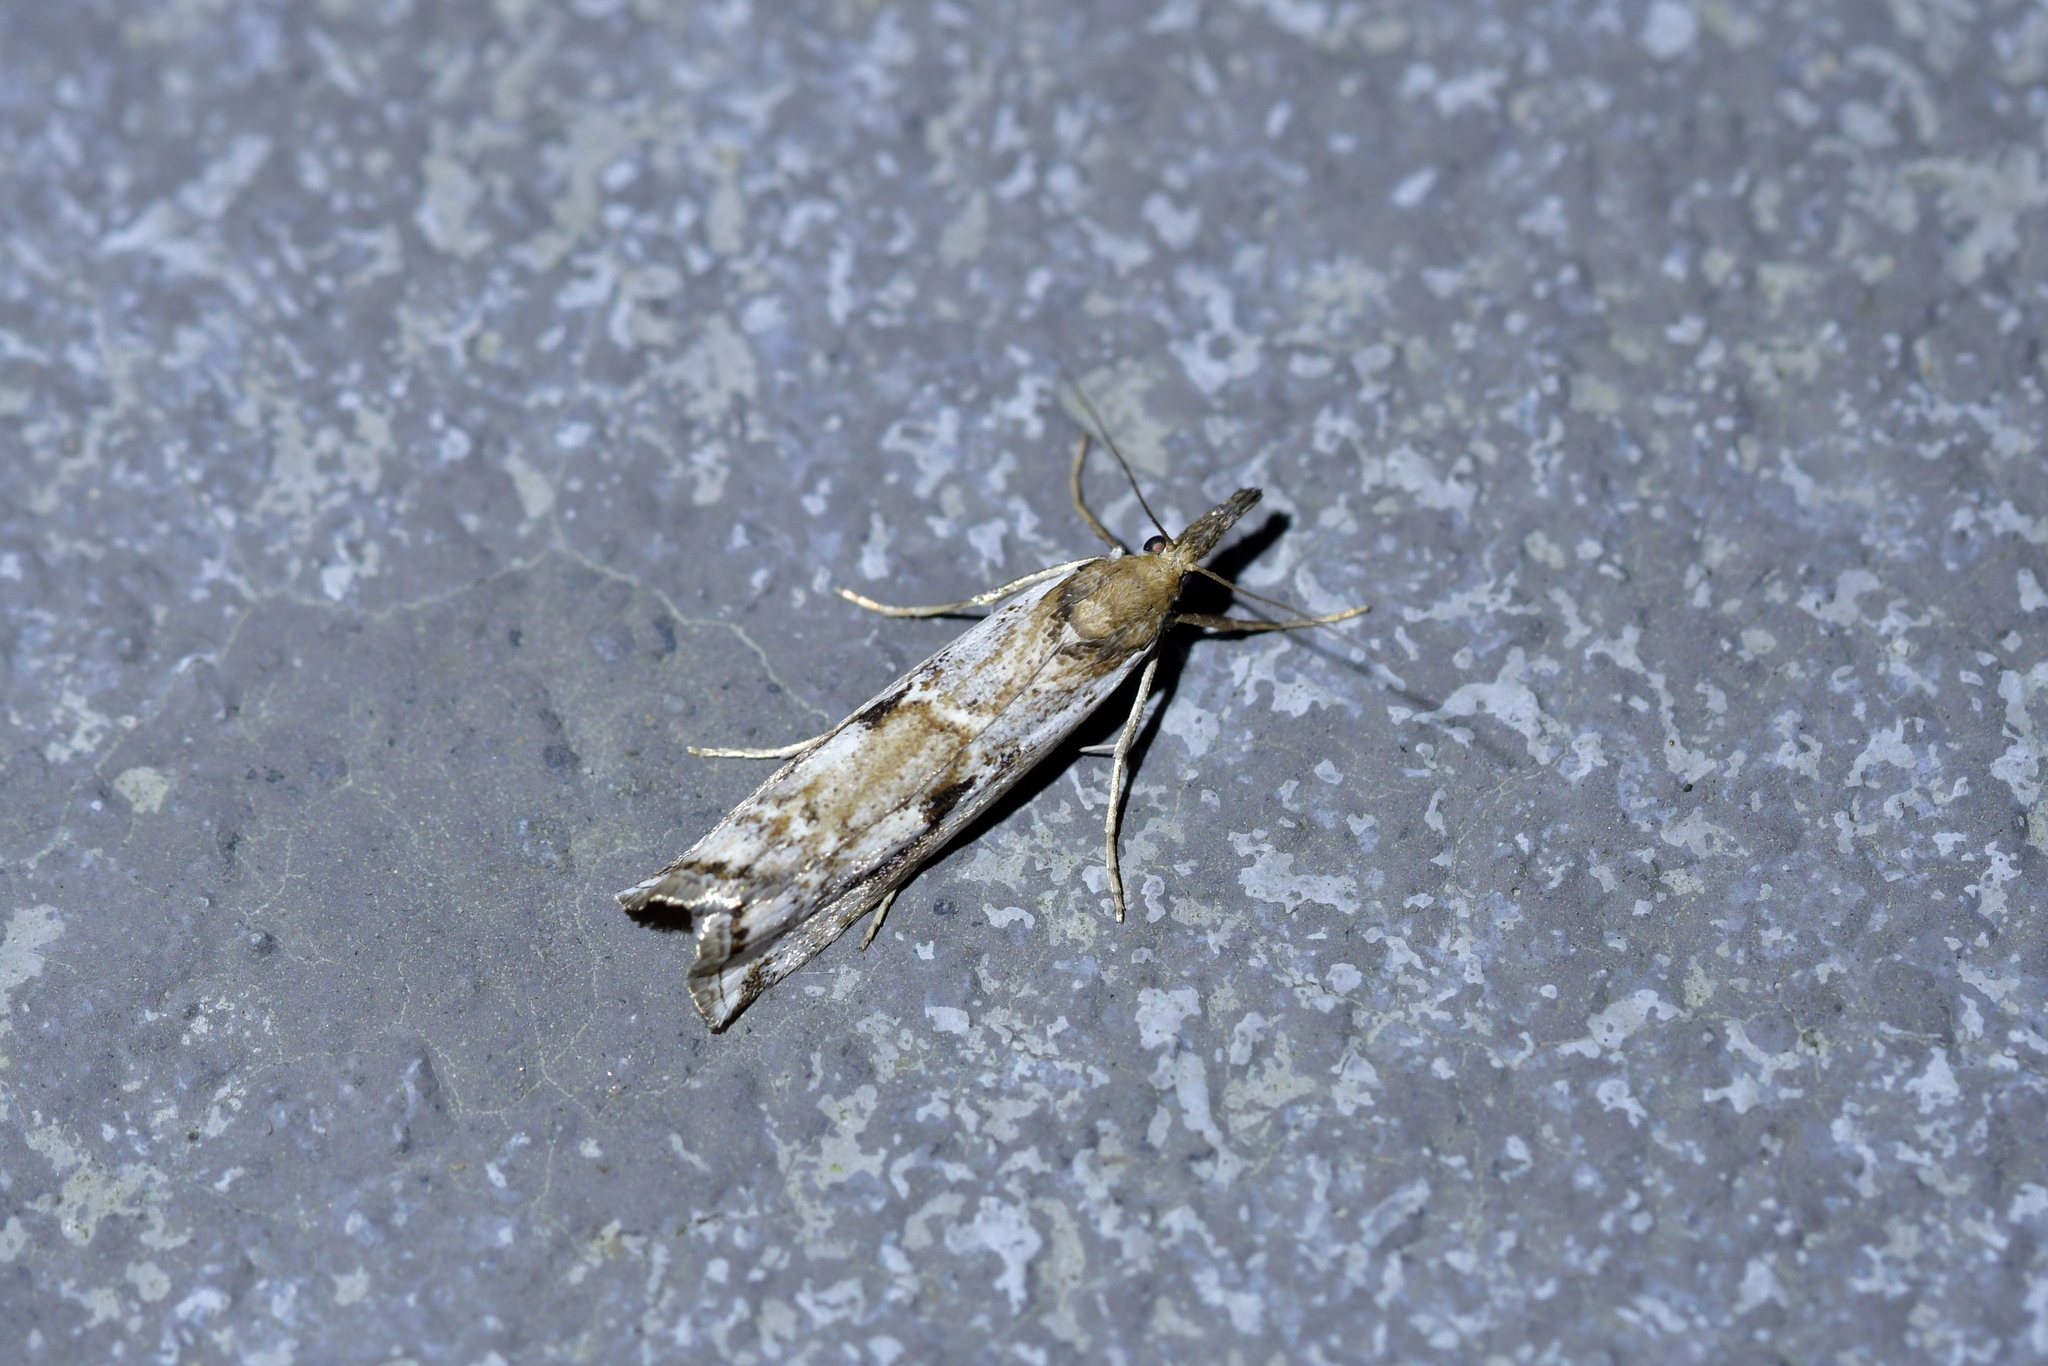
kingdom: Animalia
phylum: Arthropoda
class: Insecta
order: Lepidoptera
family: Crambidae
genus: Orocrambus
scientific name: Orocrambus vulgaris
